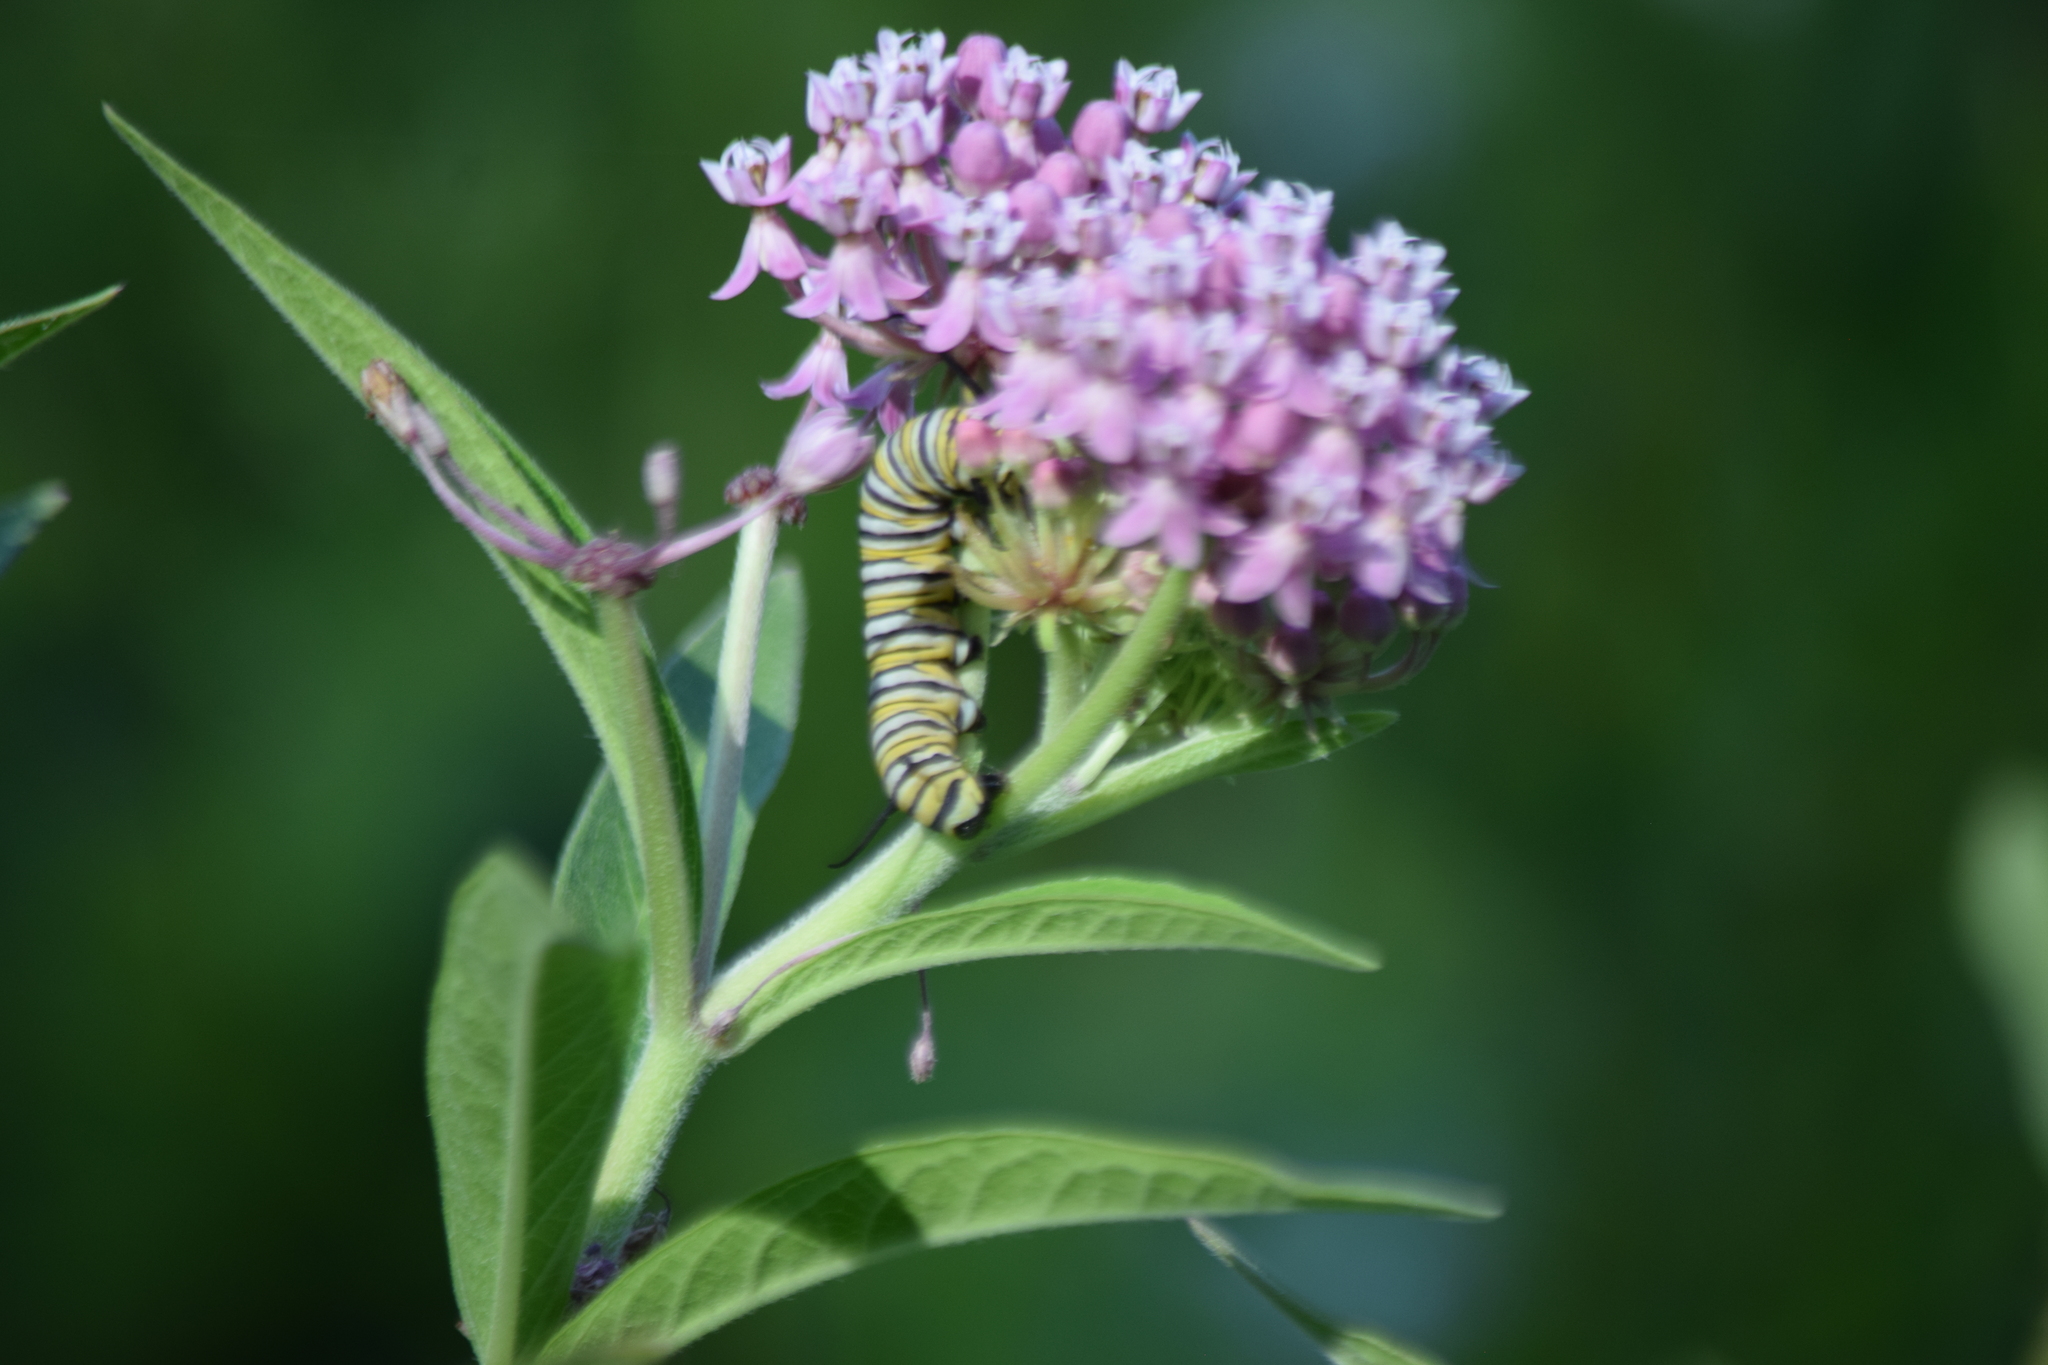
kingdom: Animalia
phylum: Arthropoda
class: Insecta
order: Lepidoptera
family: Nymphalidae
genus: Danaus
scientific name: Danaus plexippus
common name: Monarch
